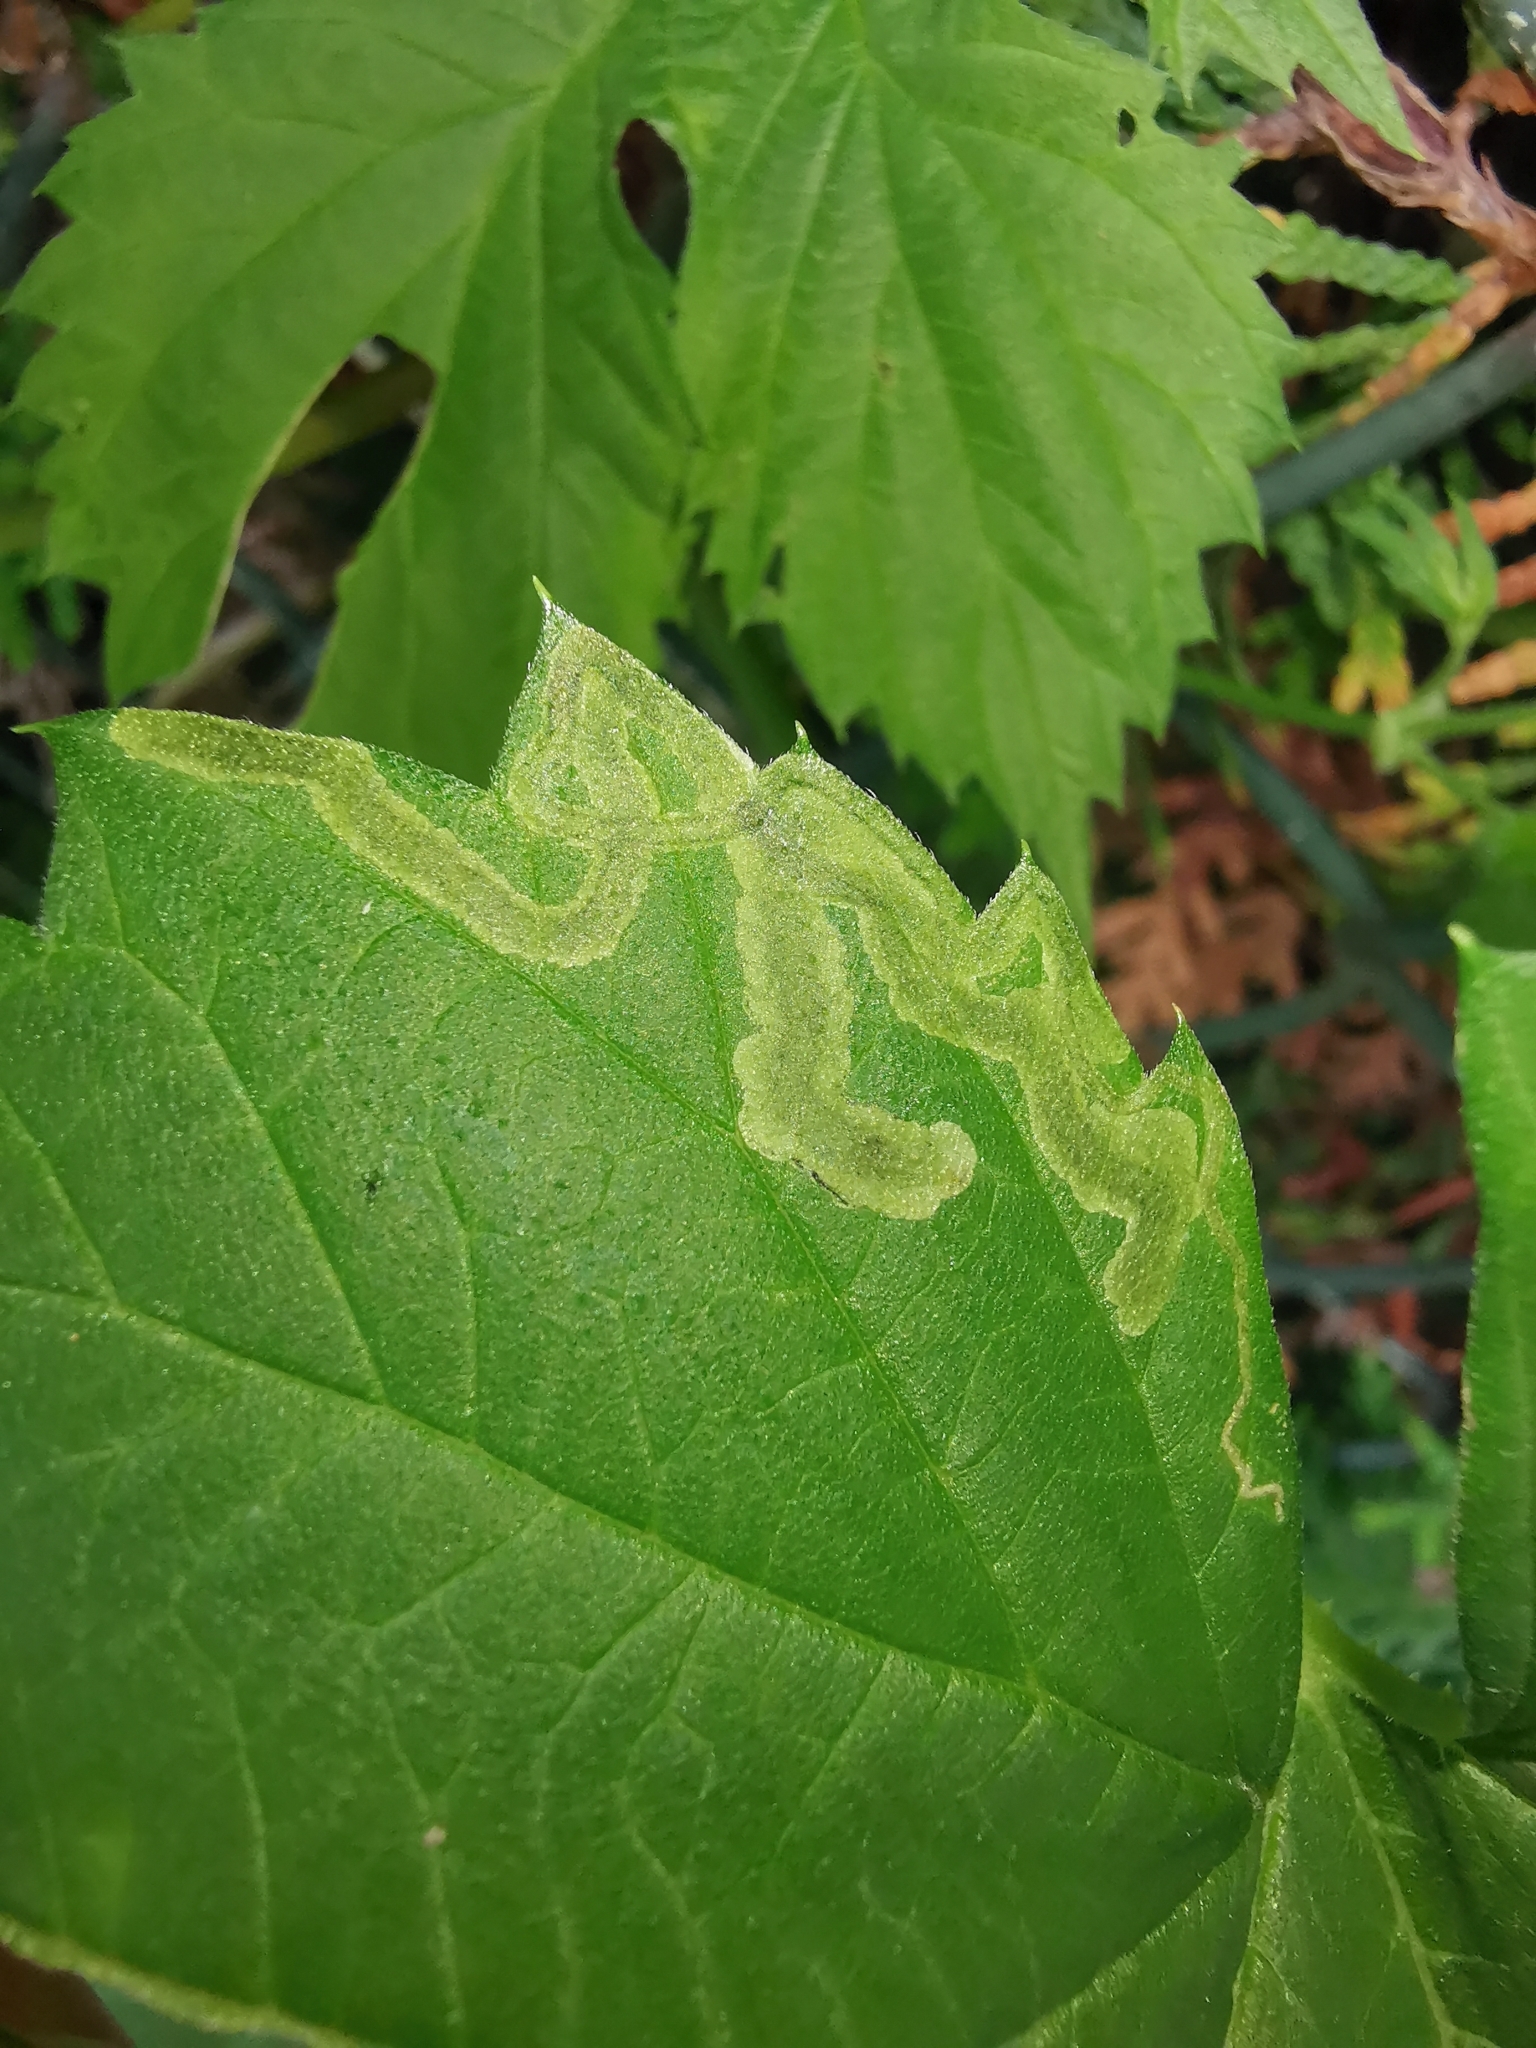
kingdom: Animalia
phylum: Arthropoda
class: Insecta
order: Diptera
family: Agromyzidae
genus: Agromyza
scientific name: Agromyza flaviceps
